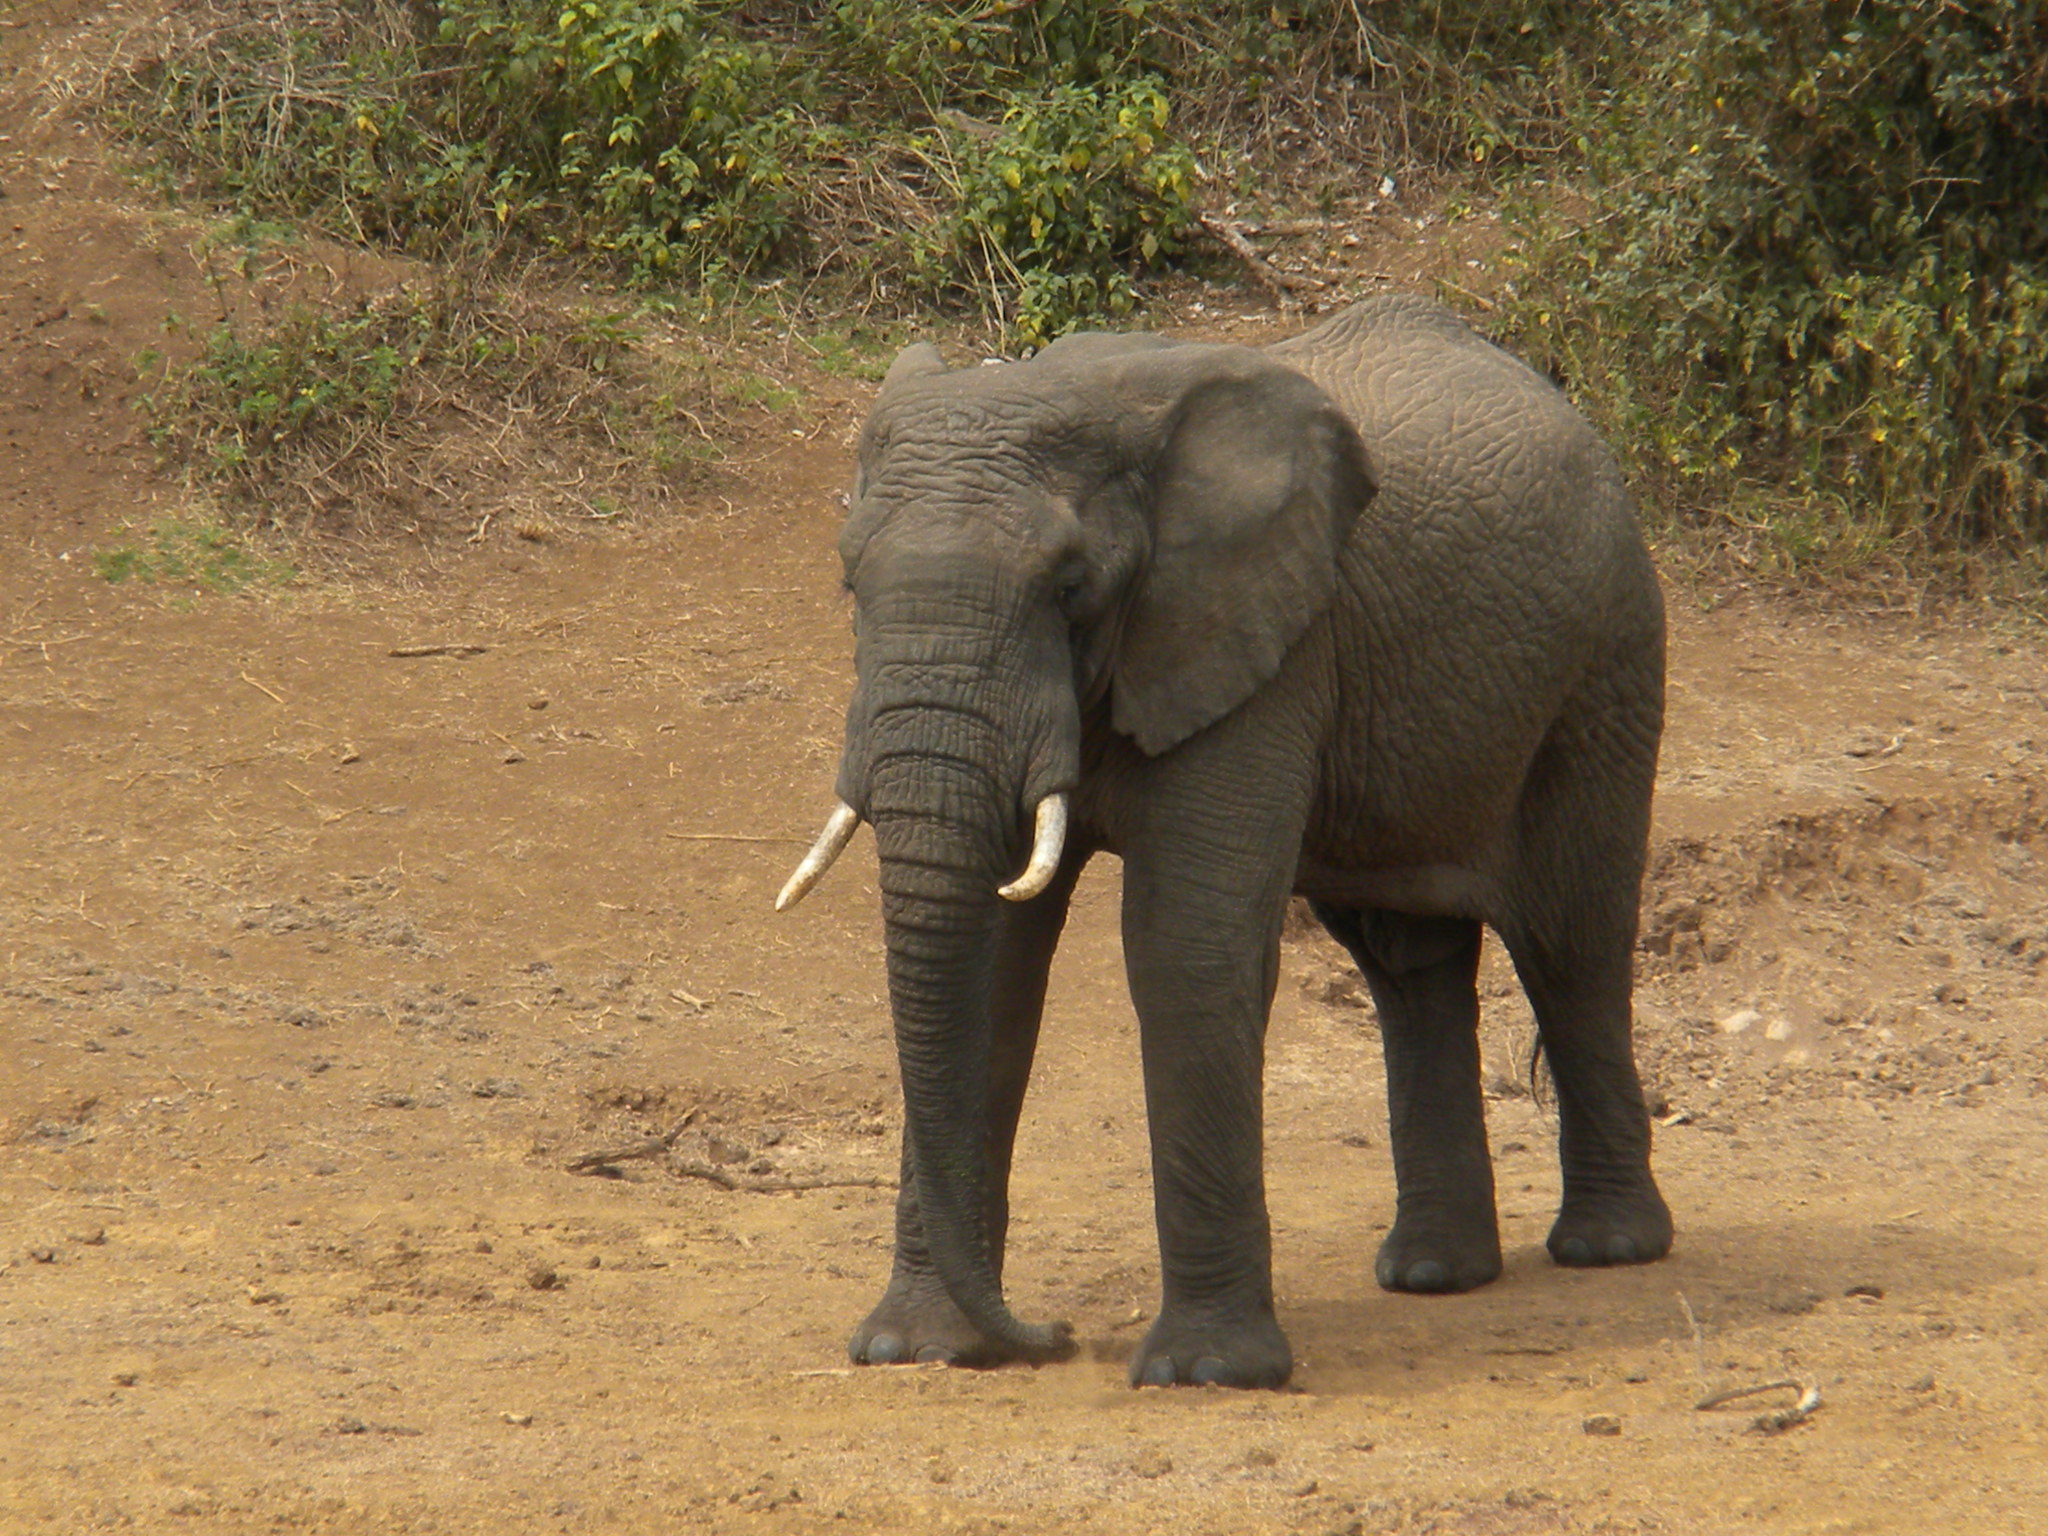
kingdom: Animalia
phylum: Chordata
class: Mammalia
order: Proboscidea
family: Elephantidae
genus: Loxodonta
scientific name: Loxodonta africana
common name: African elephant
